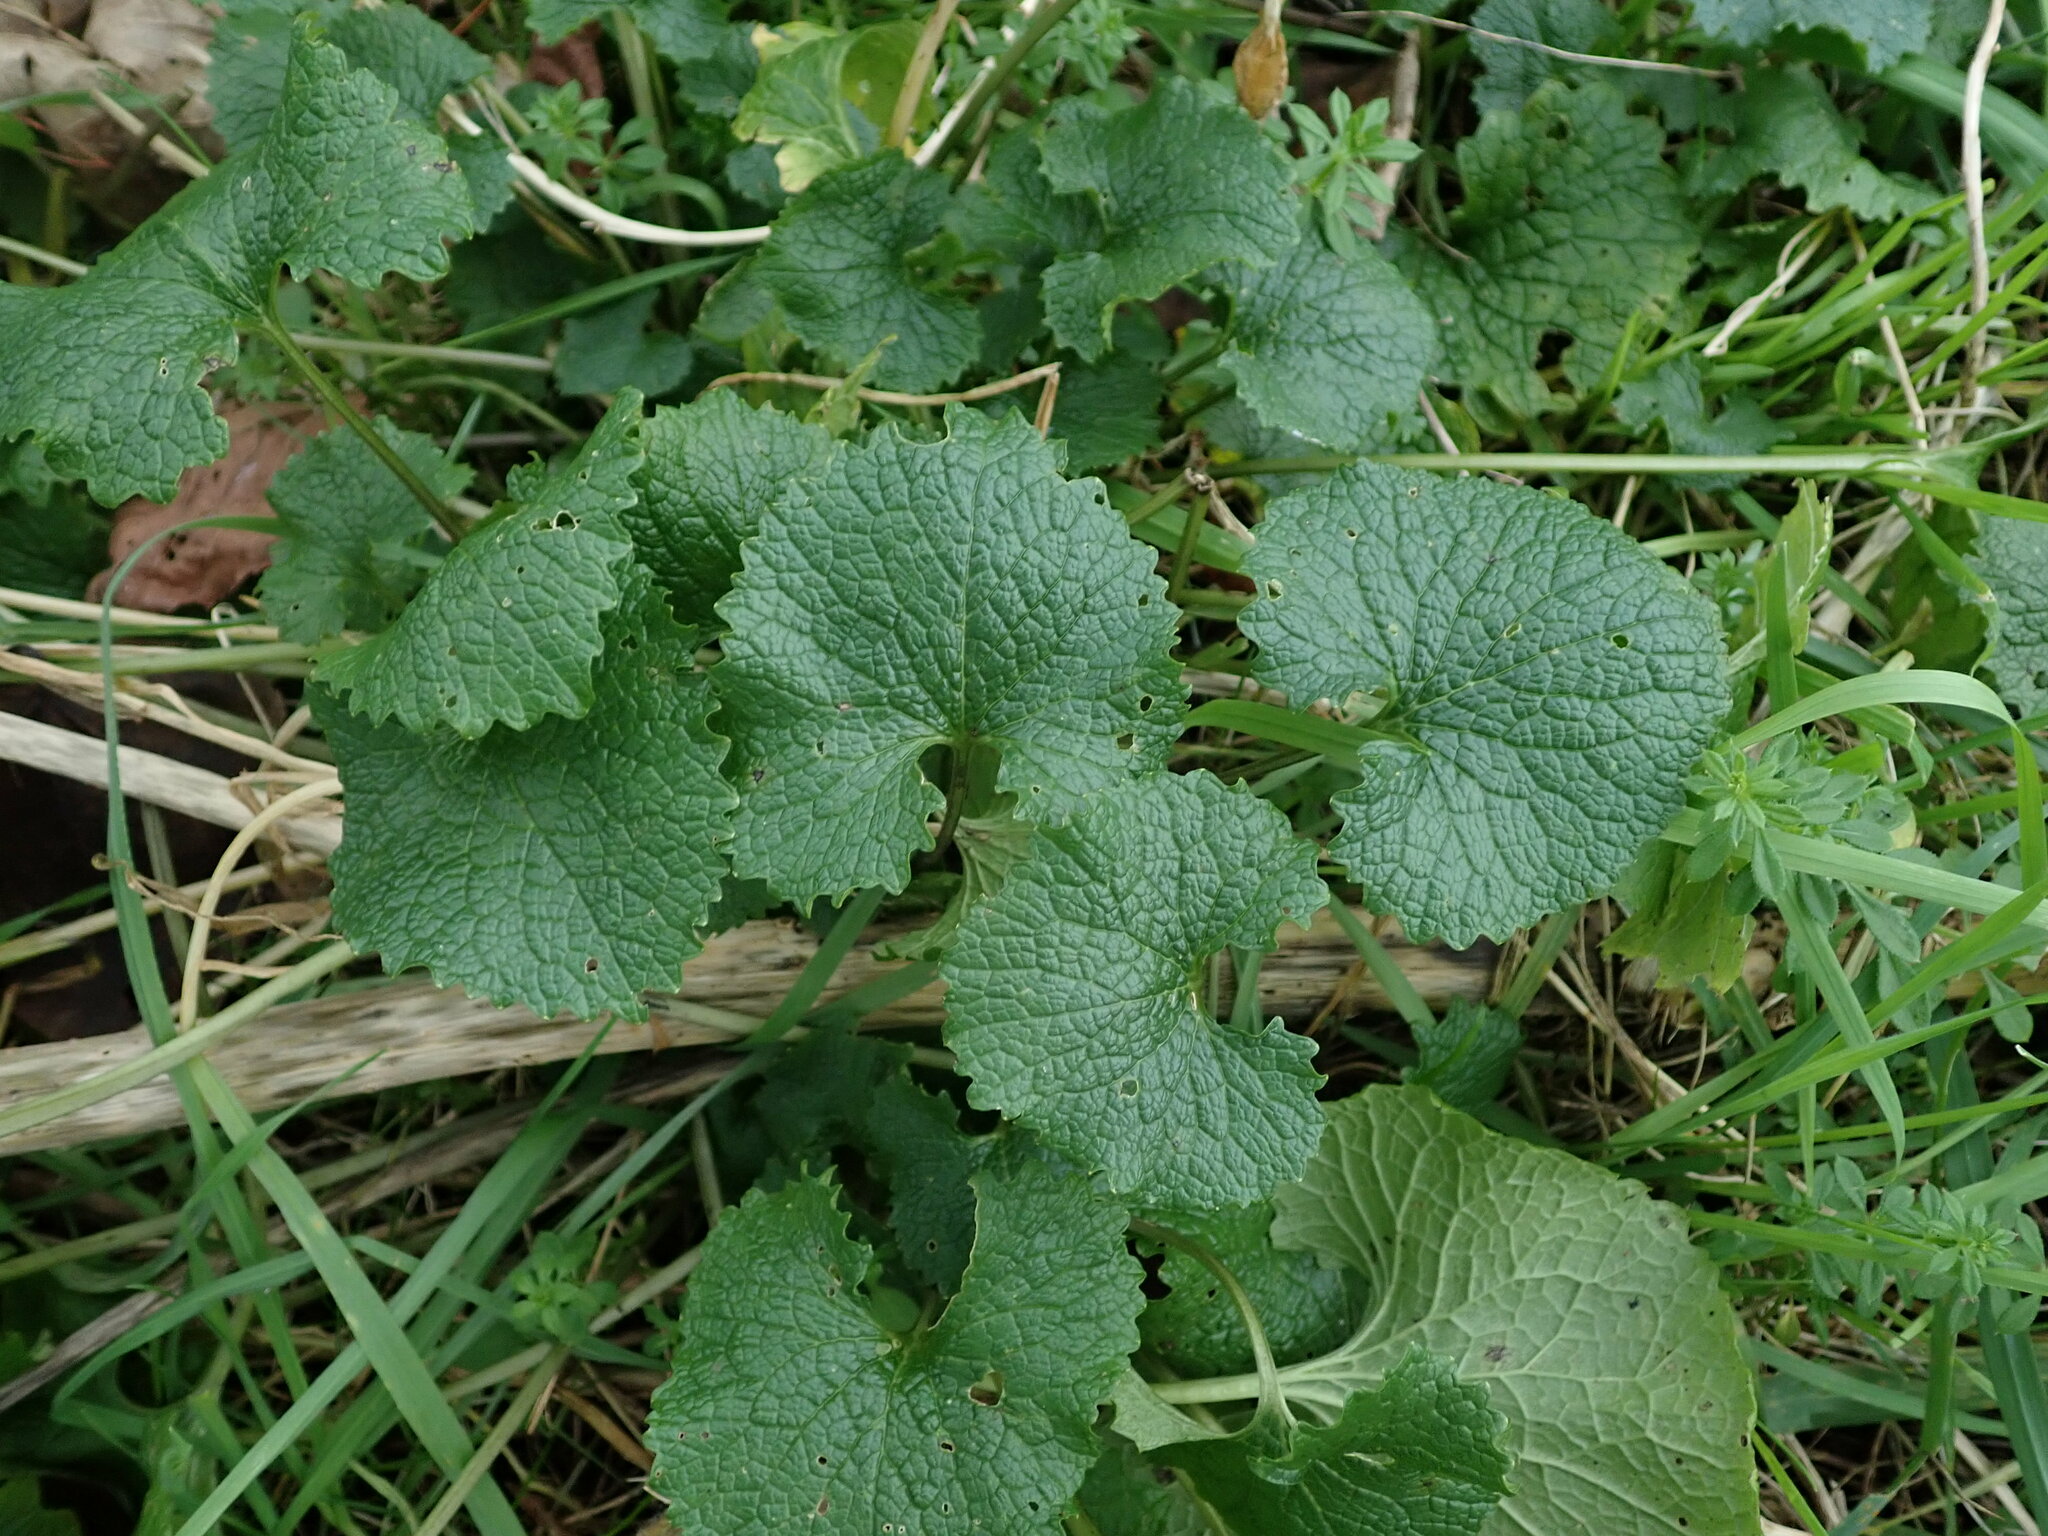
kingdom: Plantae
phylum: Tracheophyta
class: Magnoliopsida
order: Brassicales
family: Brassicaceae
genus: Alliaria
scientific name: Alliaria petiolata
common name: Garlic mustard
